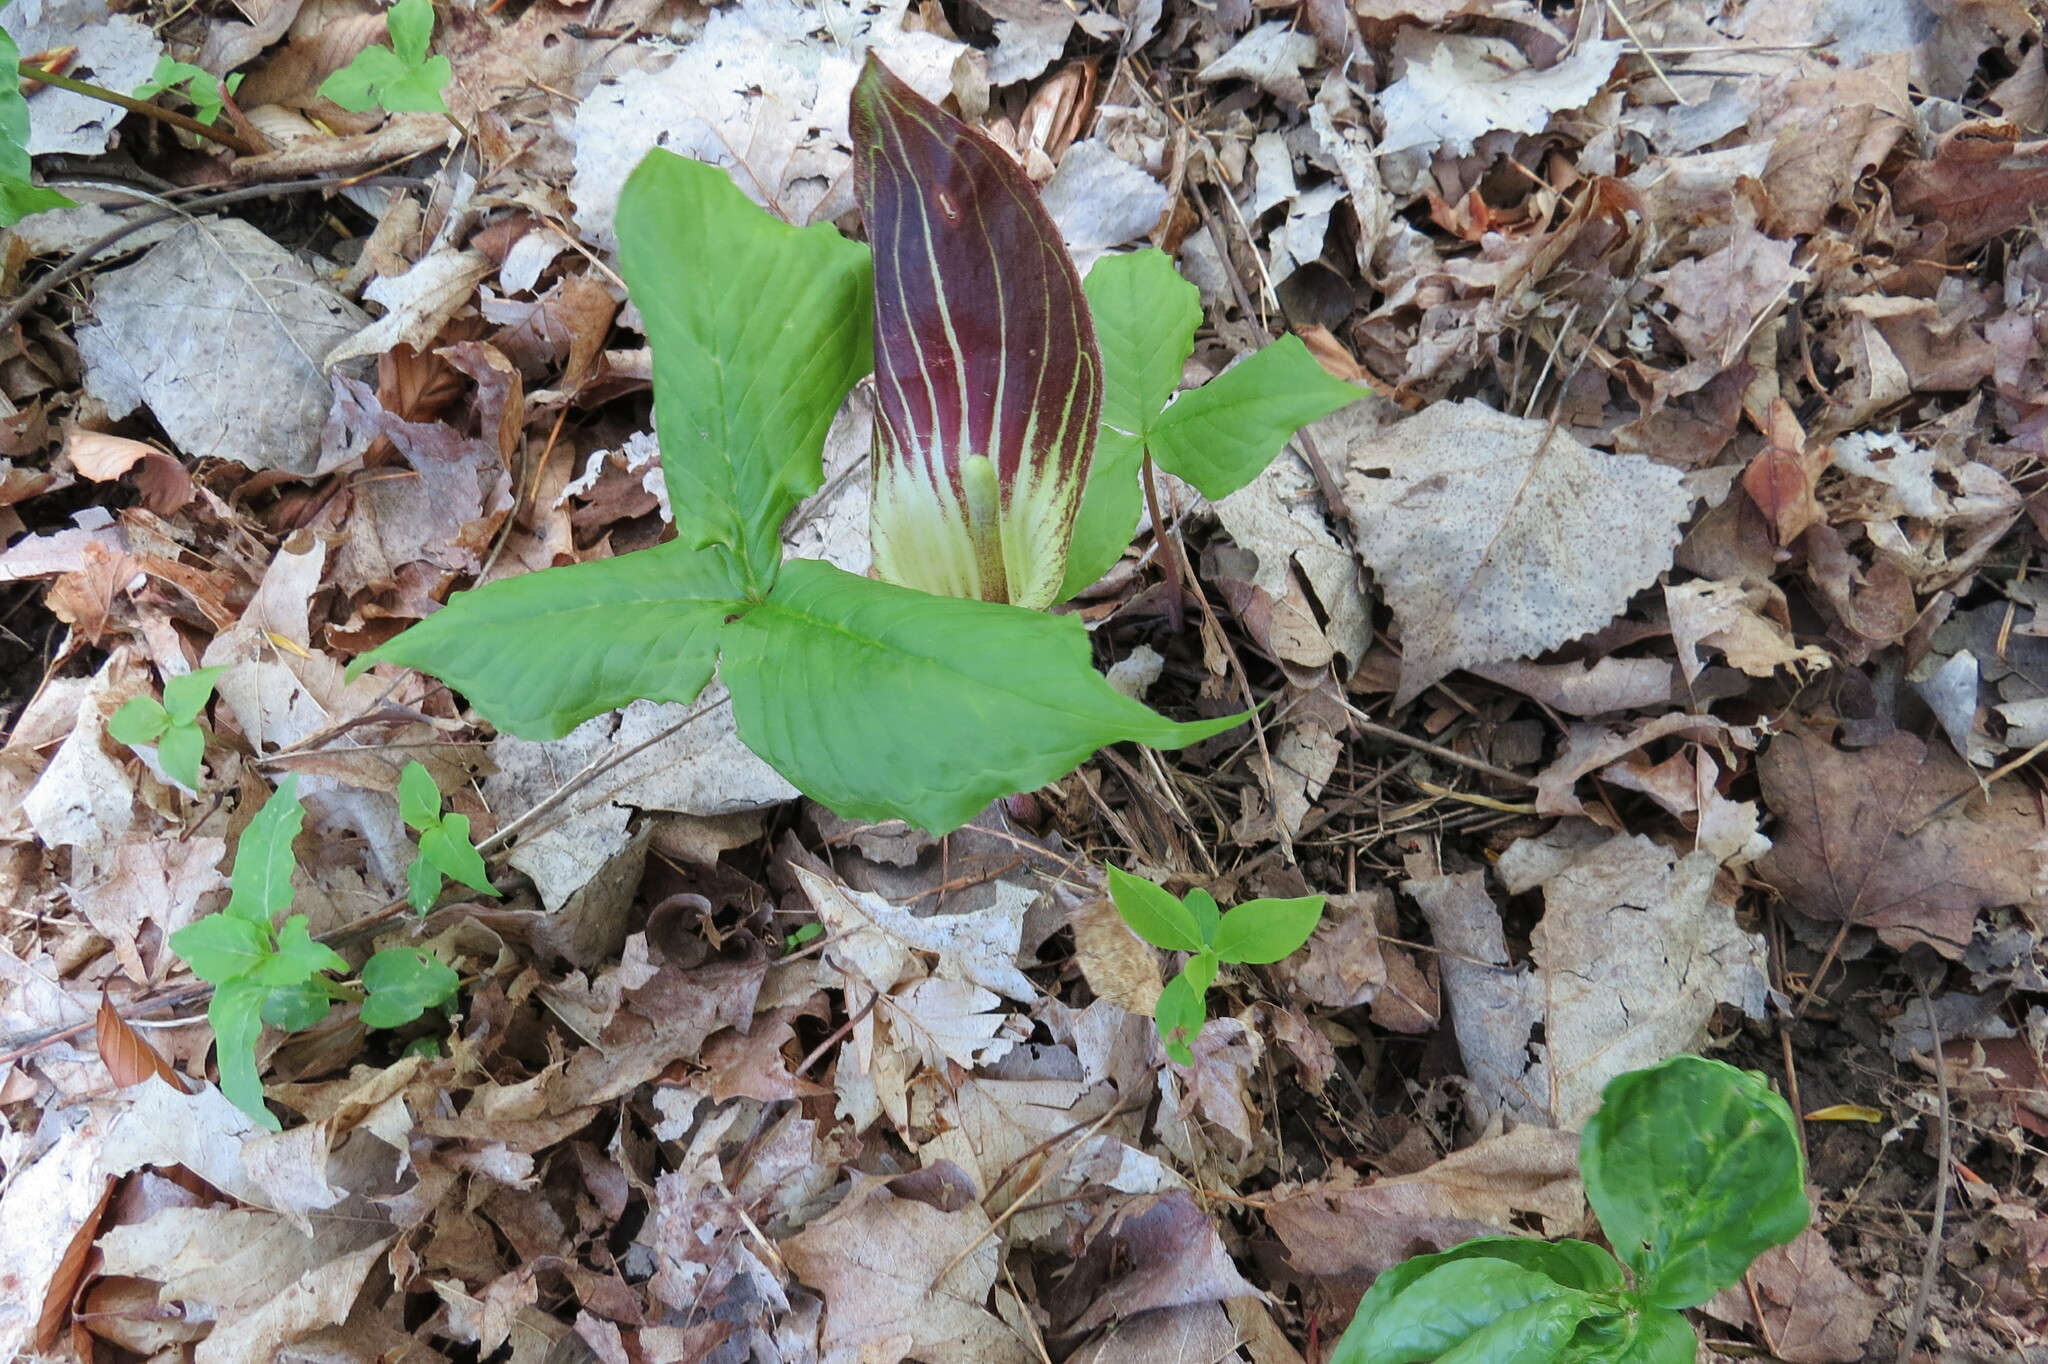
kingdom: Plantae
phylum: Tracheophyta
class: Liliopsida
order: Alismatales
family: Araceae
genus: Arisaema
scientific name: Arisaema triphyllum
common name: Jack-in-the-pulpit
